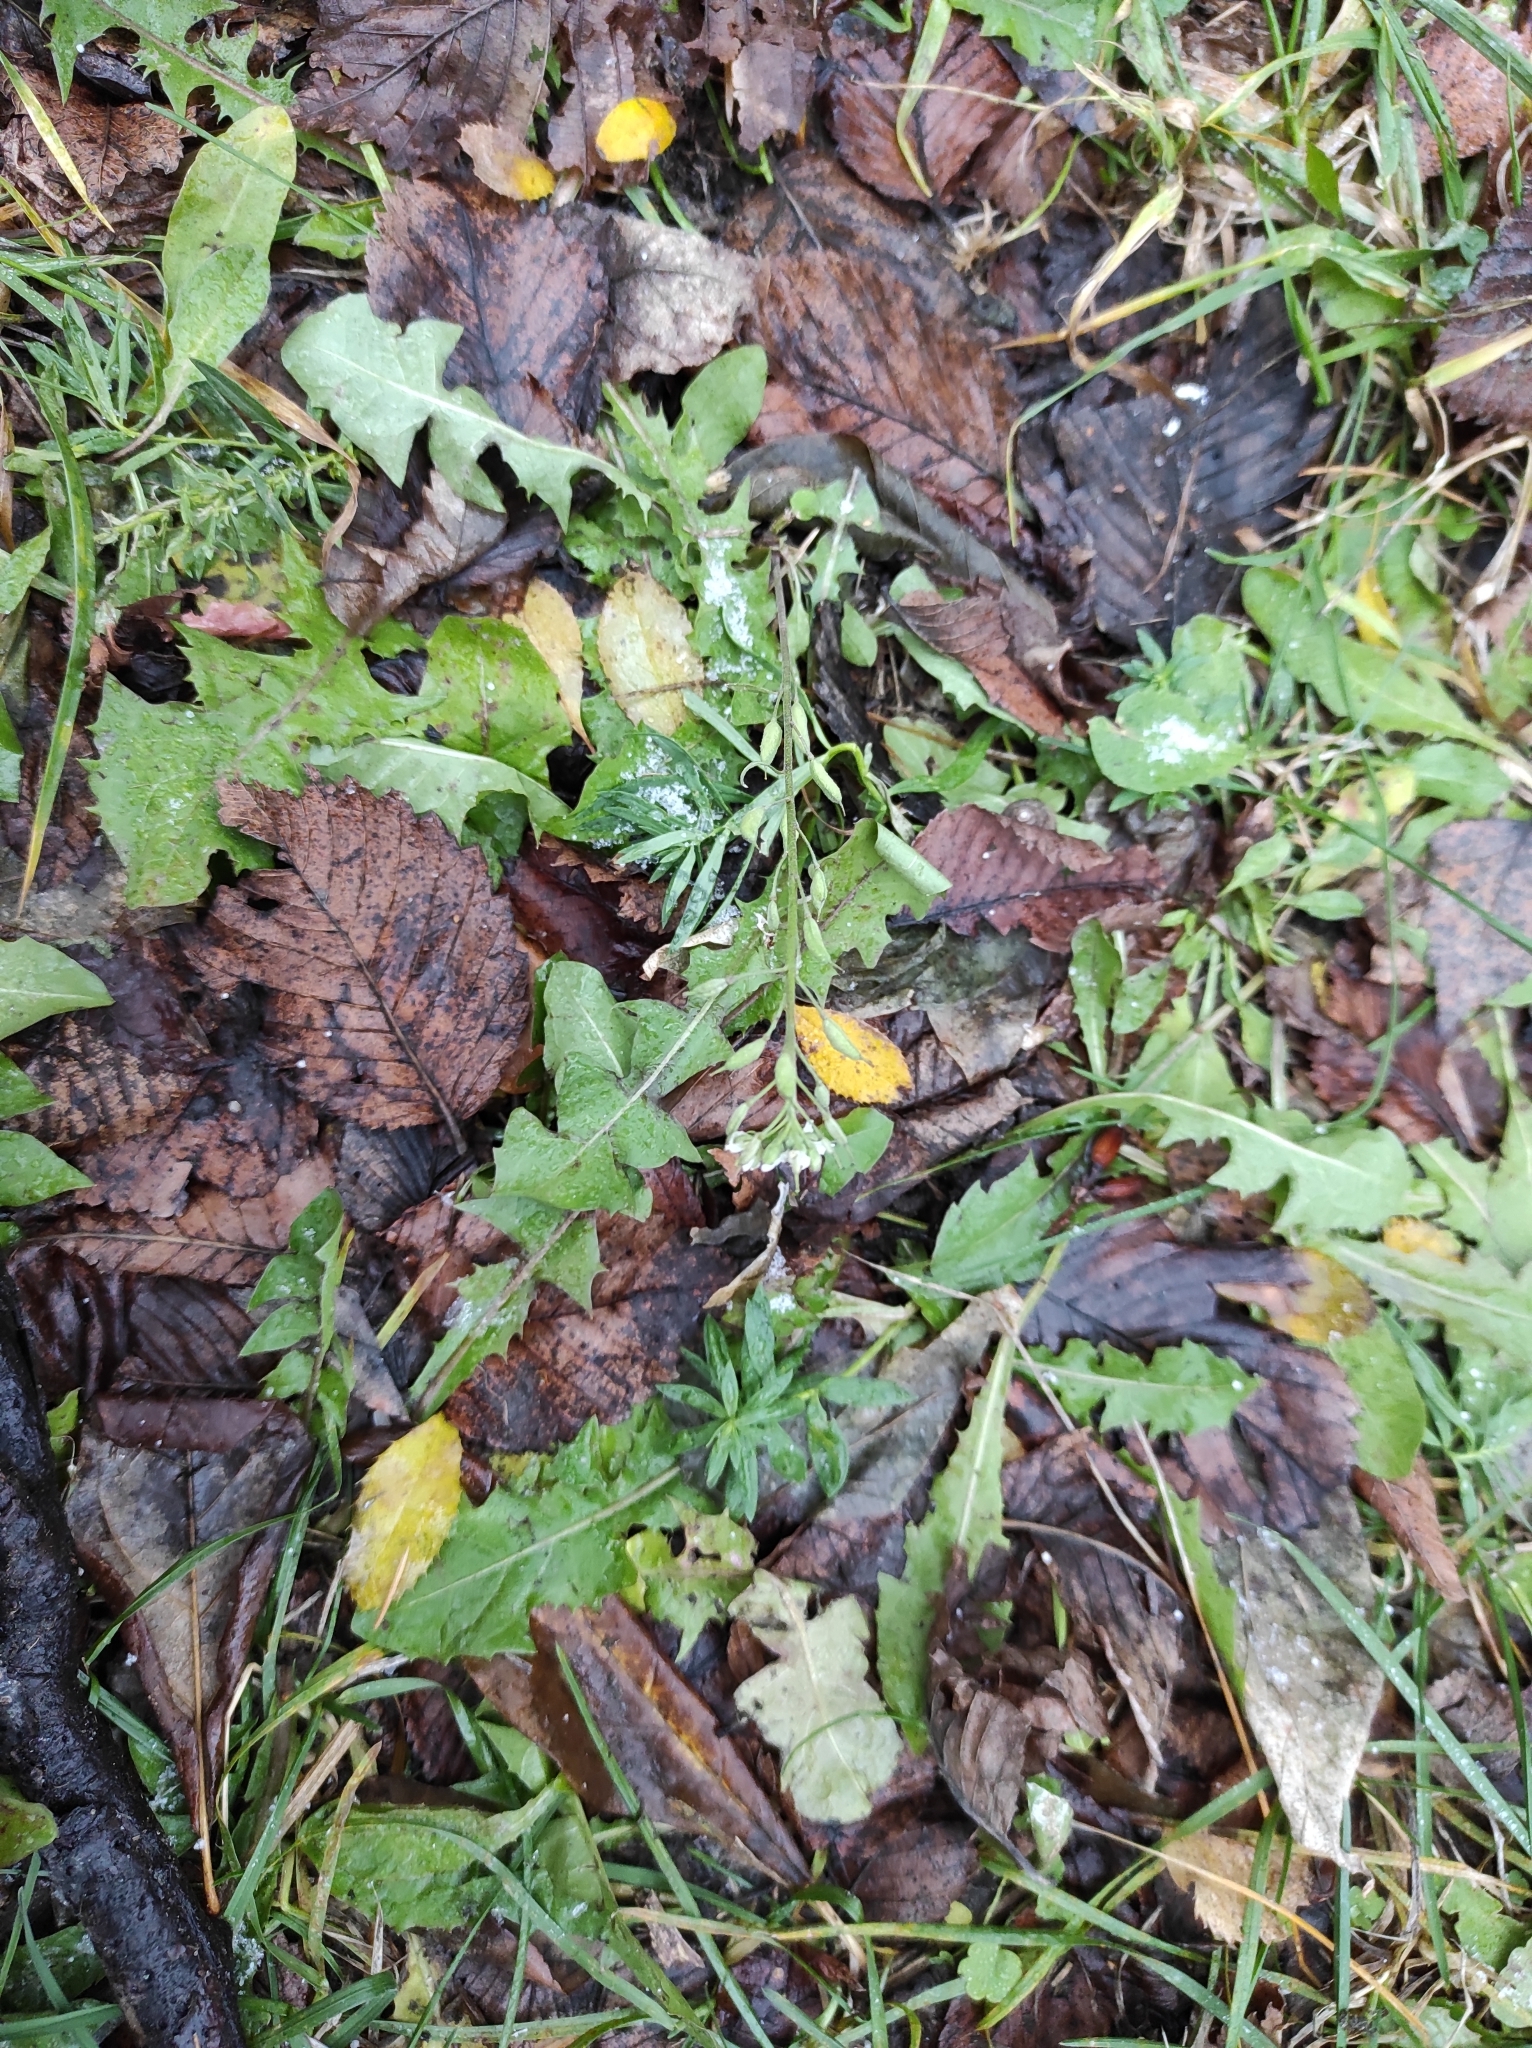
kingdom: Plantae
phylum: Tracheophyta
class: Magnoliopsida
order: Brassicales
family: Brassicaceae
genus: Berteroa
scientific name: Berteroa incana
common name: Hoary alison
